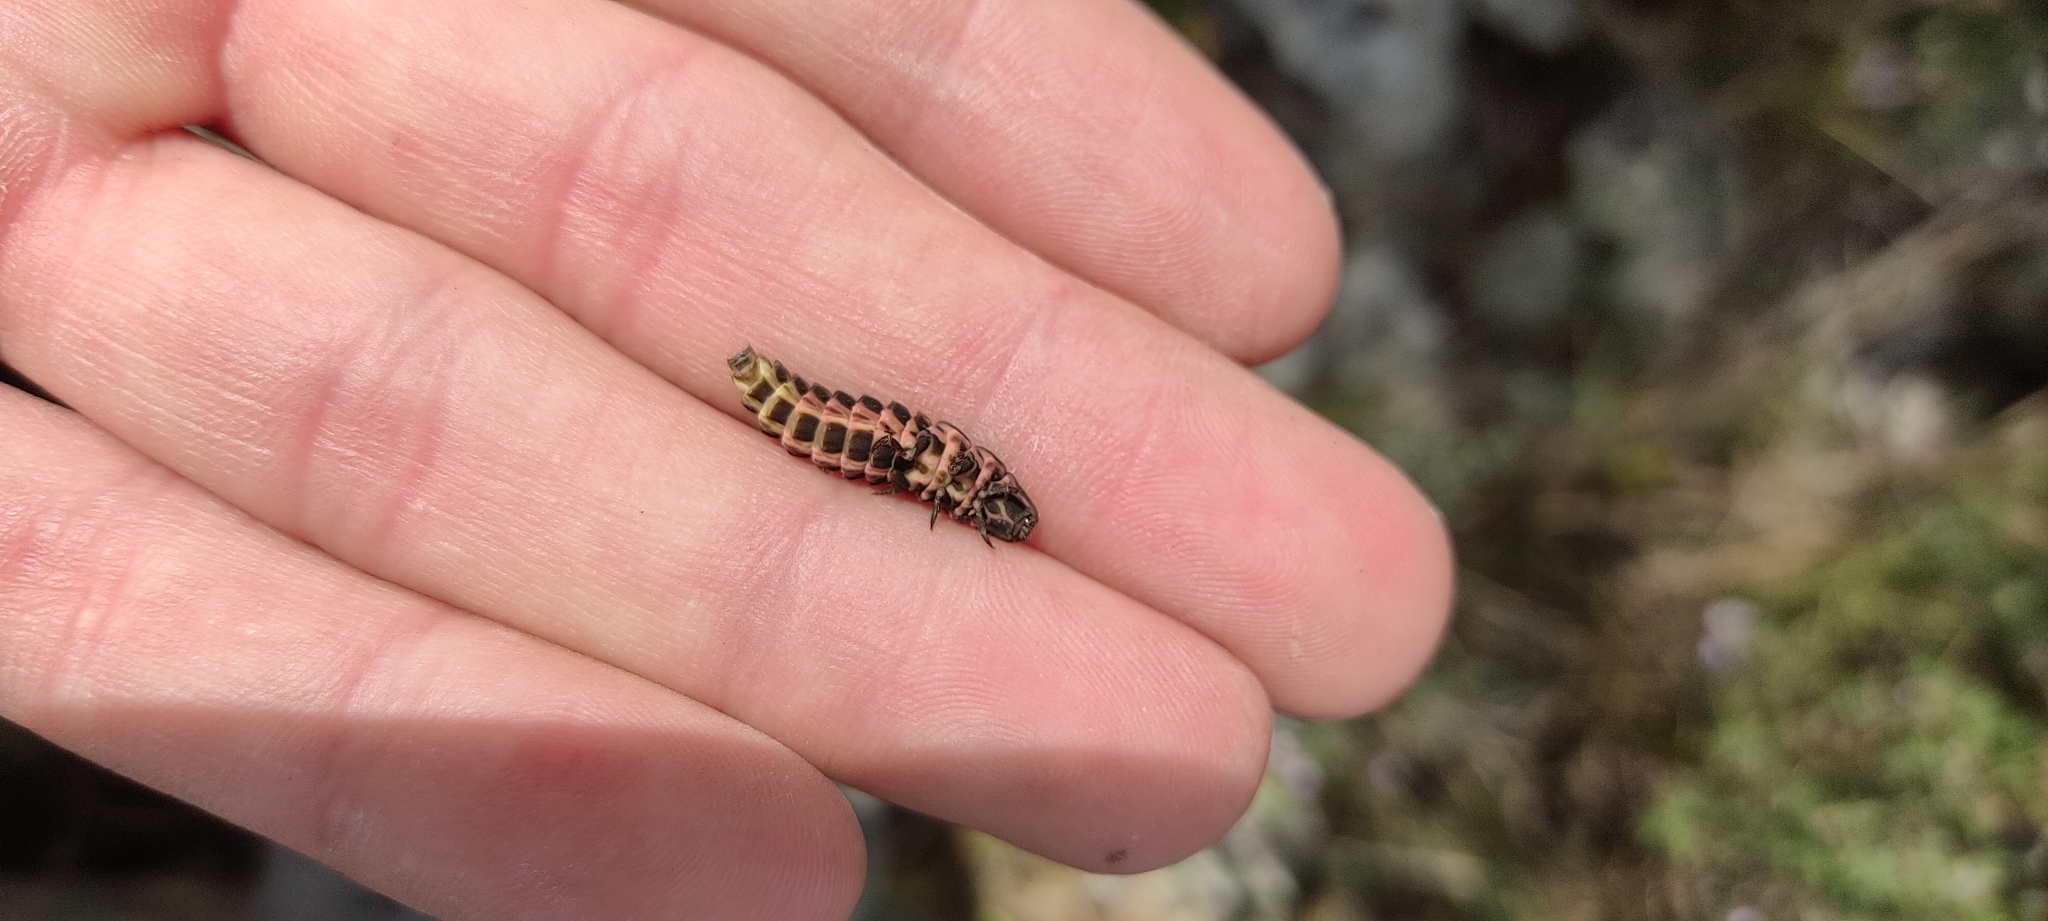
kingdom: Animalia
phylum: Arthropoda
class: Insecta
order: Coleoptera
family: Lampyridae
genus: Nyctophila
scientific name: Nyctophila reichii
